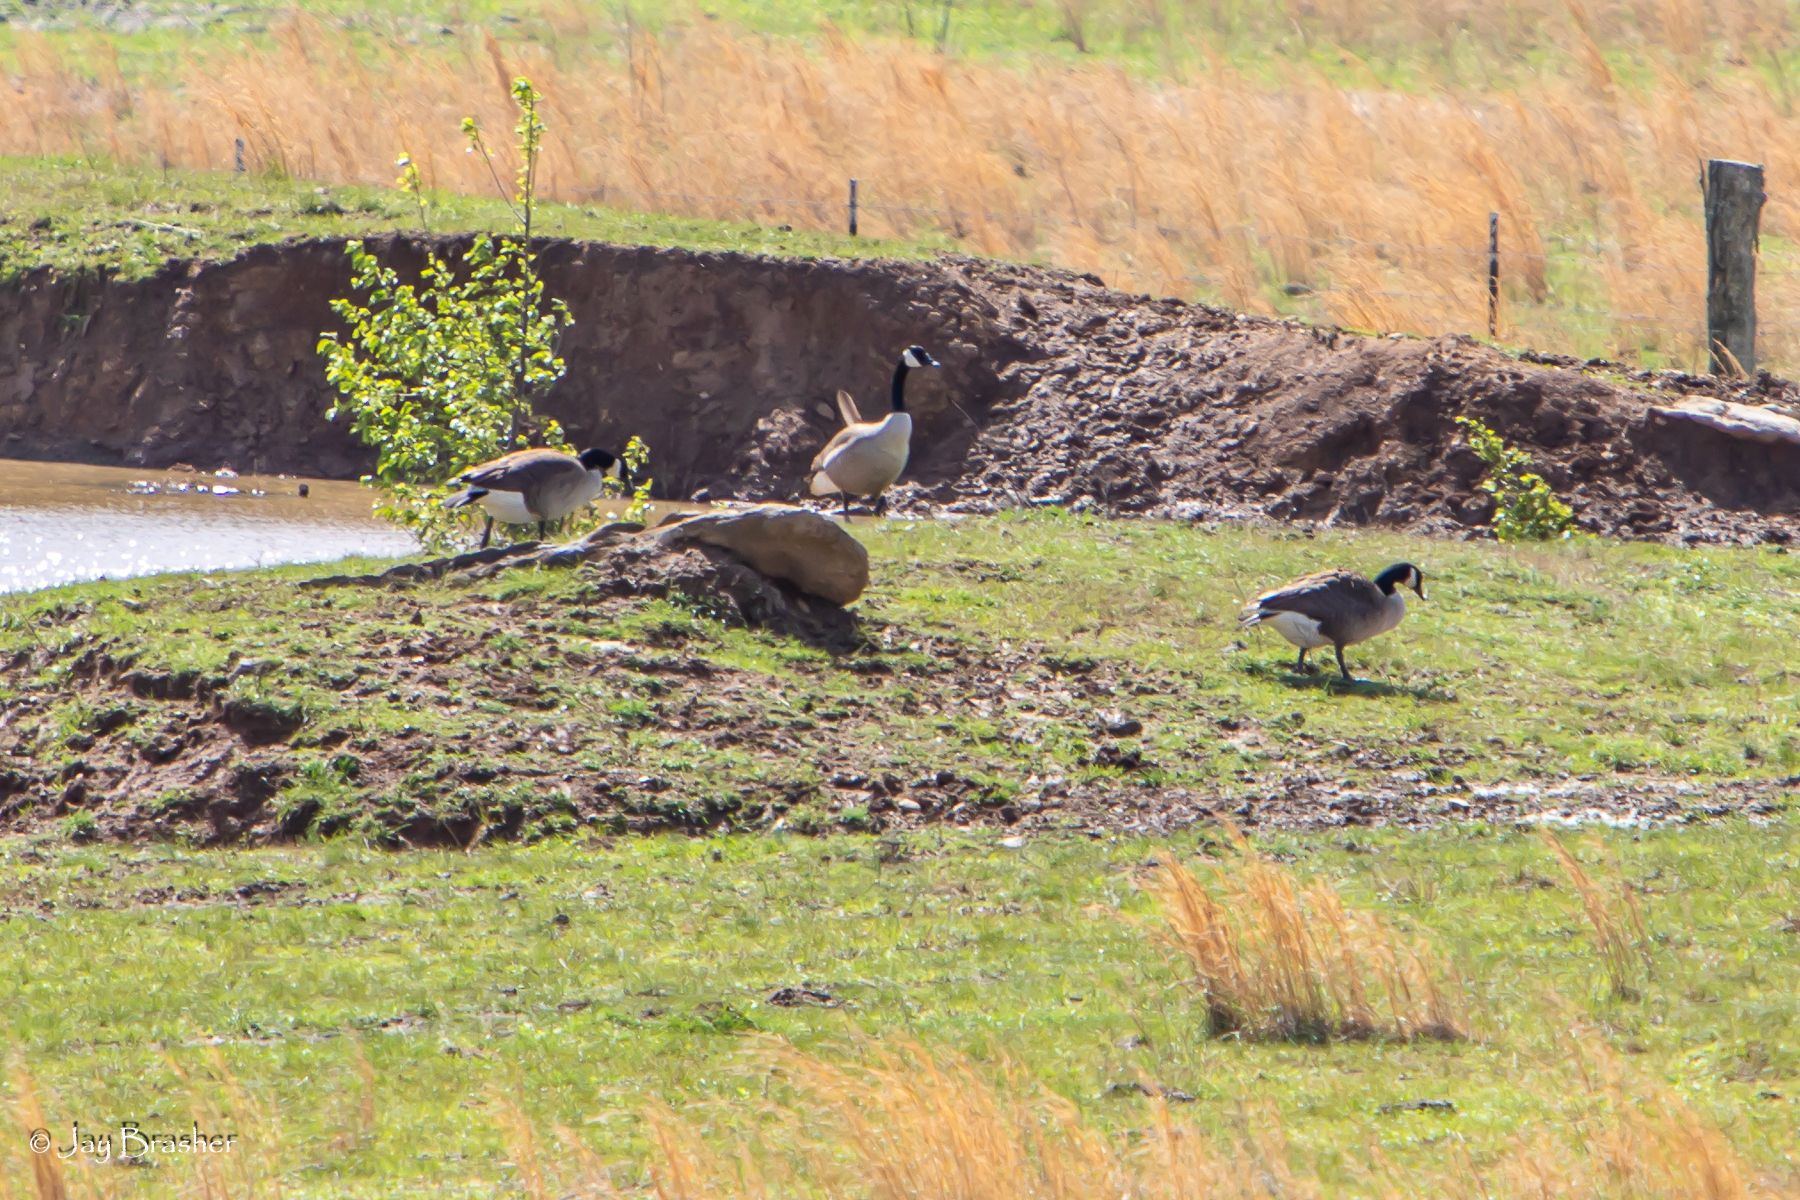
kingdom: Animalia
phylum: Chordata
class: Aves
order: Anseriformes
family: Anatidae
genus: Branta
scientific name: Branta canadensis
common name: Canada goose
